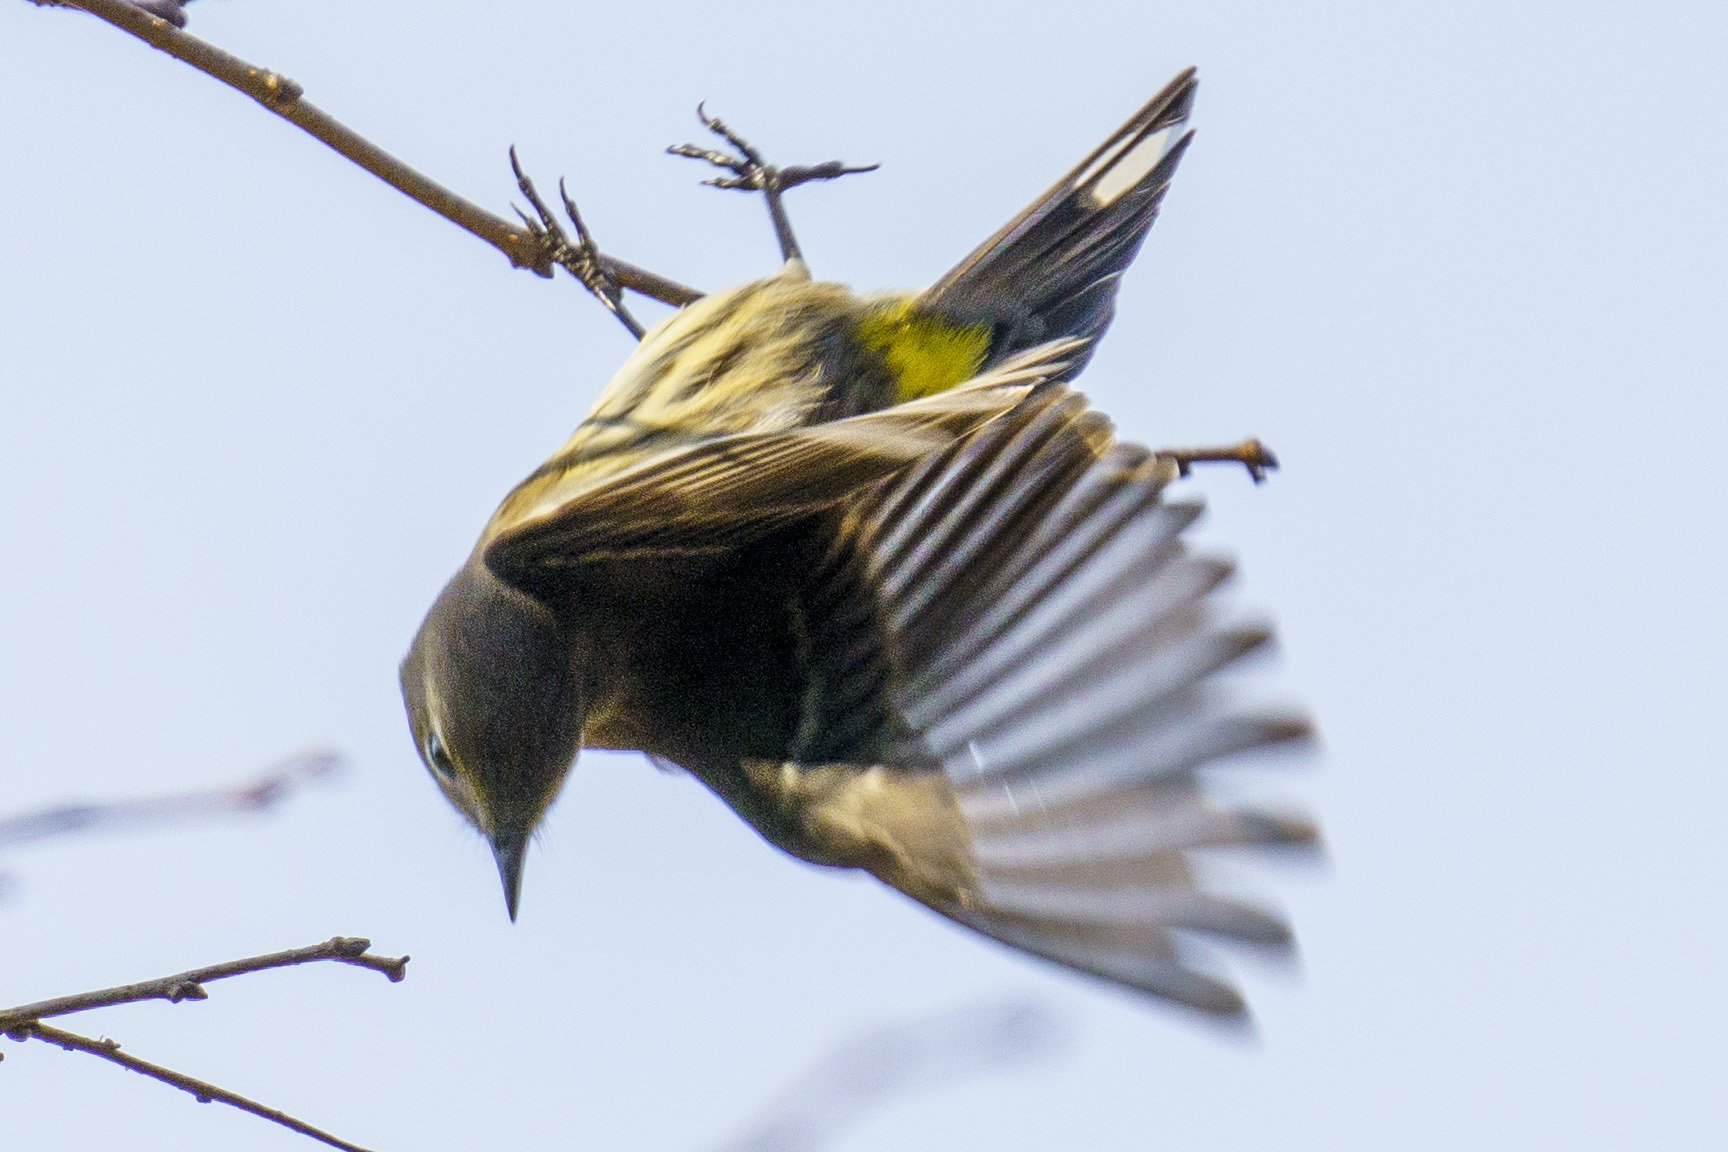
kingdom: Animalia
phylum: Chordata
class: Aves
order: Passeriformes
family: Parulidae
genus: Setophaga
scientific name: Setophaga coronata
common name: Myrtle warbler
